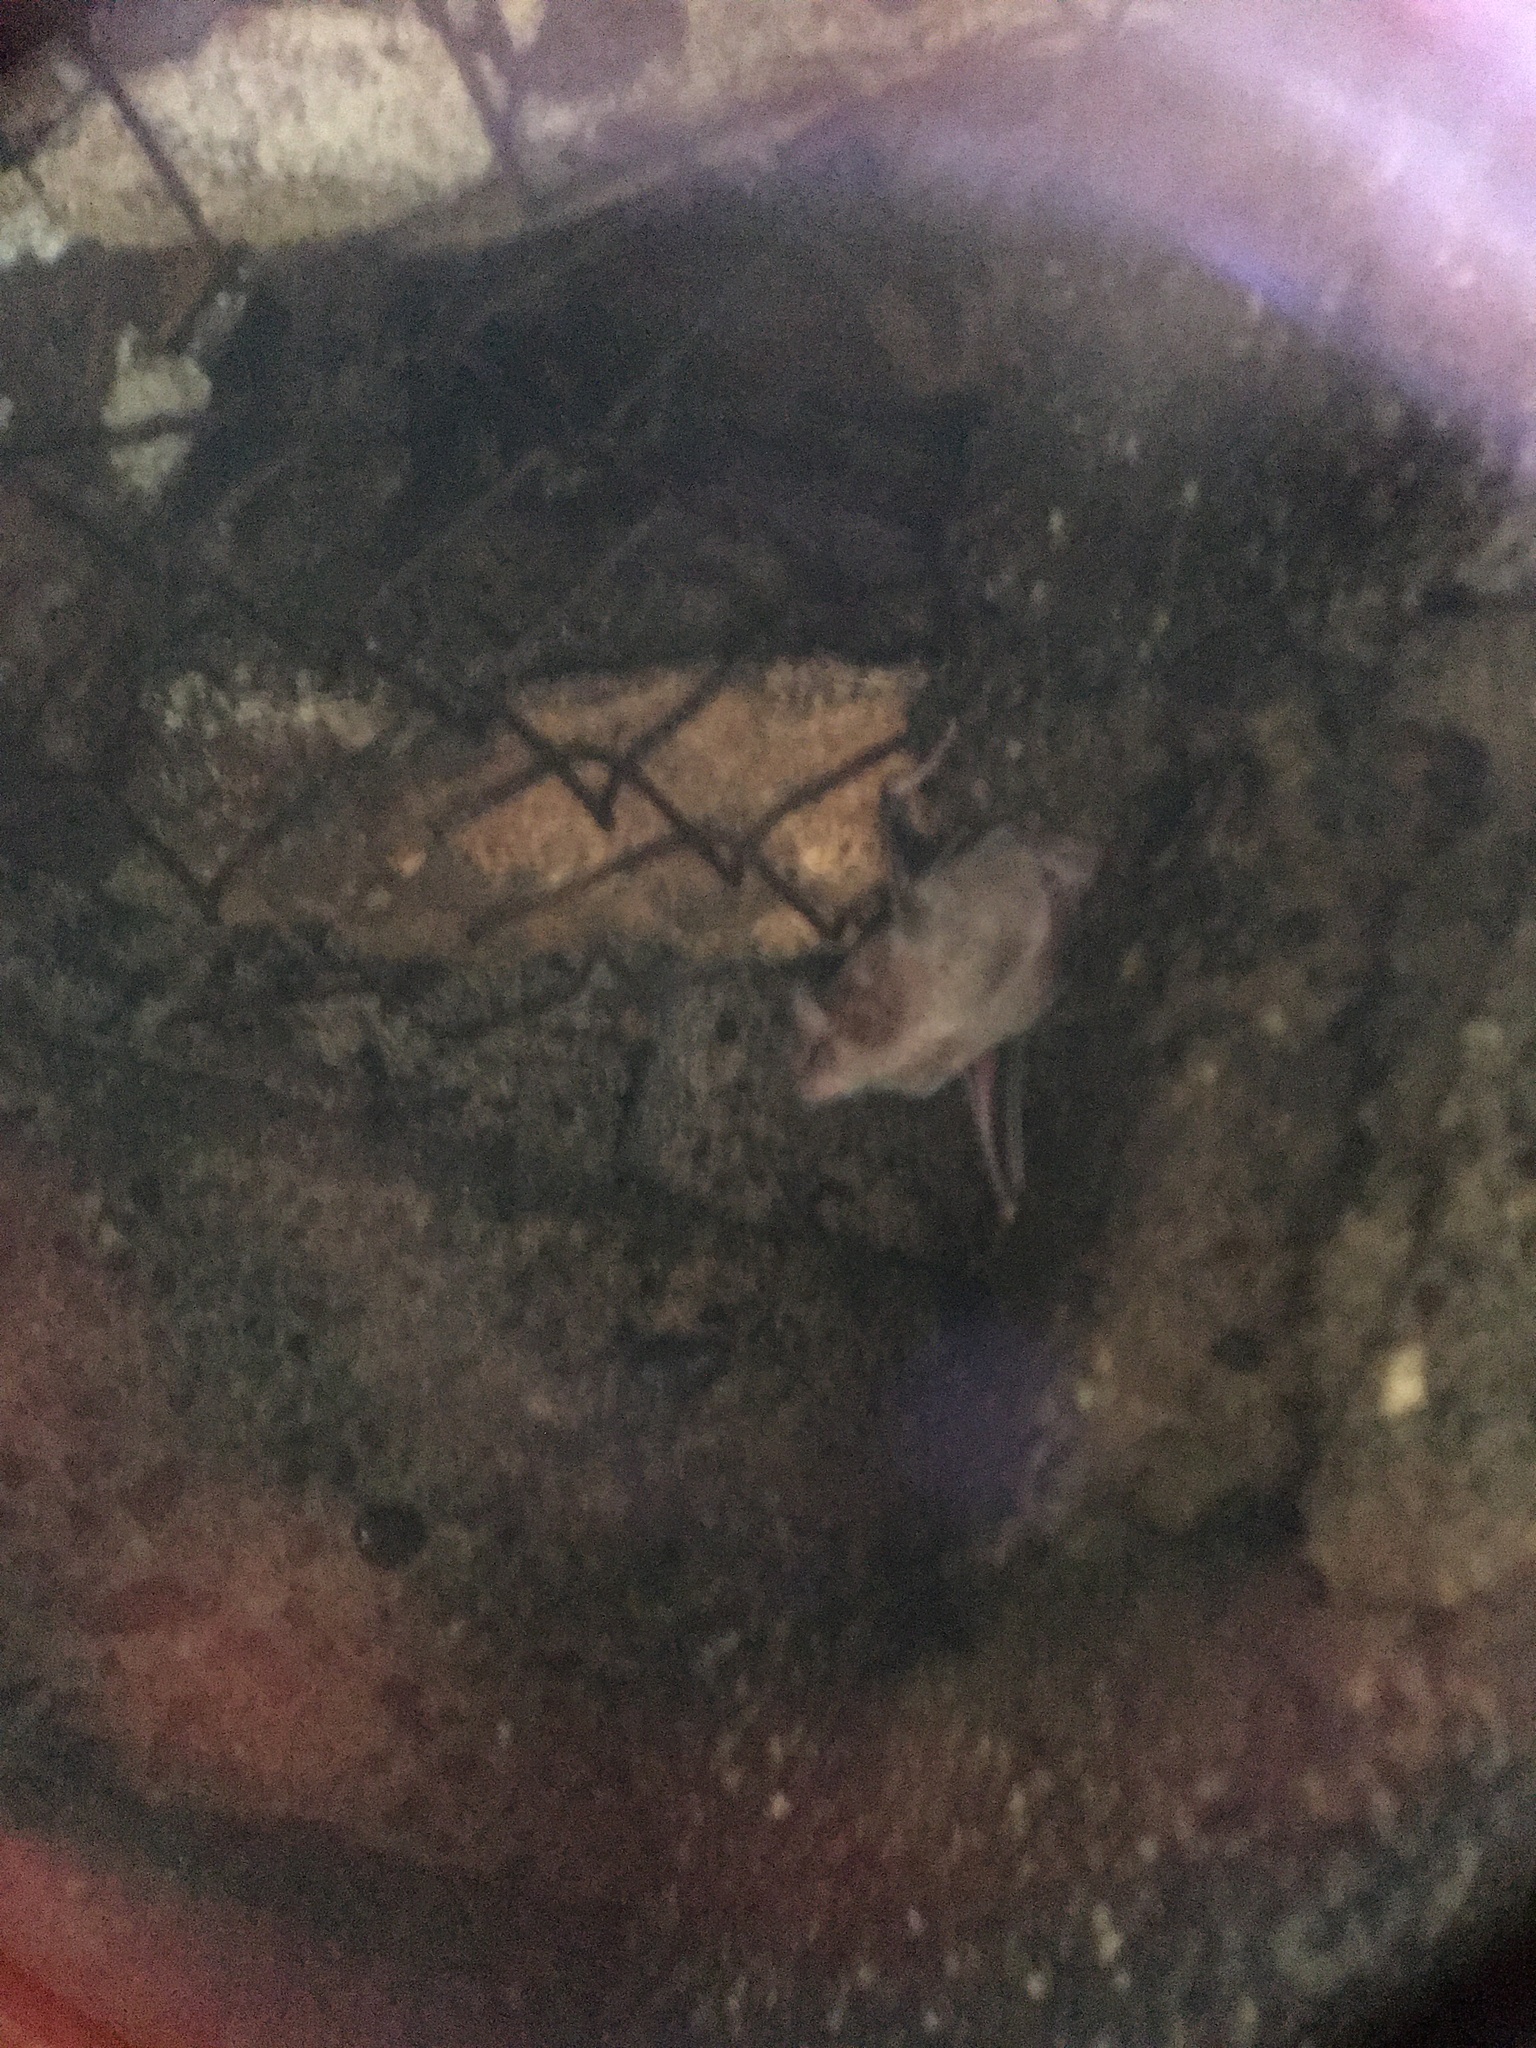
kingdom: Animalia
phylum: Chordata
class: Mammalia
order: Chiroptera
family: Phyllostomidae
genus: Desmodus
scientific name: Desmodus rotundus
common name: Common vampire bat
